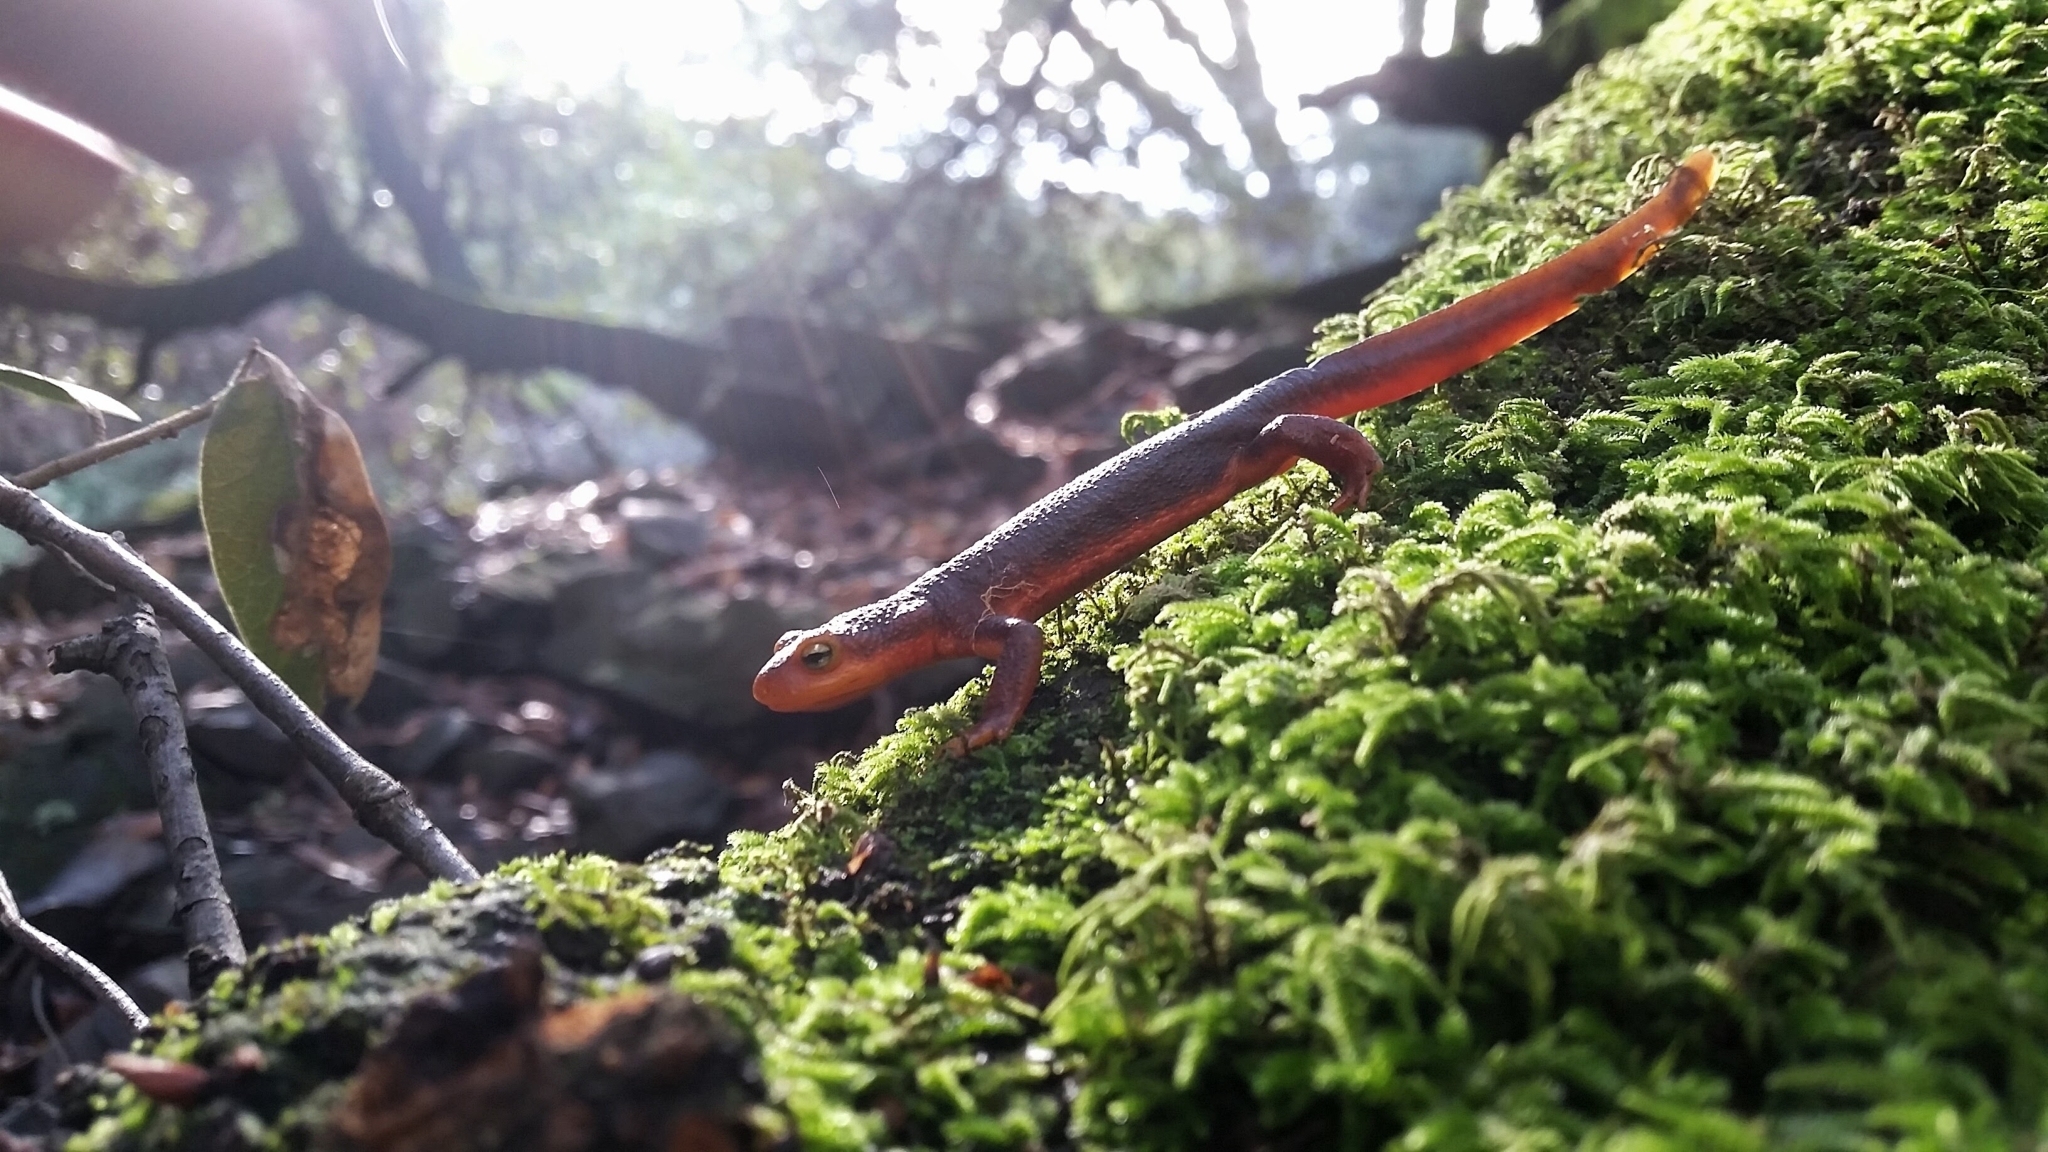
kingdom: Animalia
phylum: Chordata
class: Amphibia
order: Caudata
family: Salamandridae
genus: Taricha
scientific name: Taricha sierrae
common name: Sierra newt
